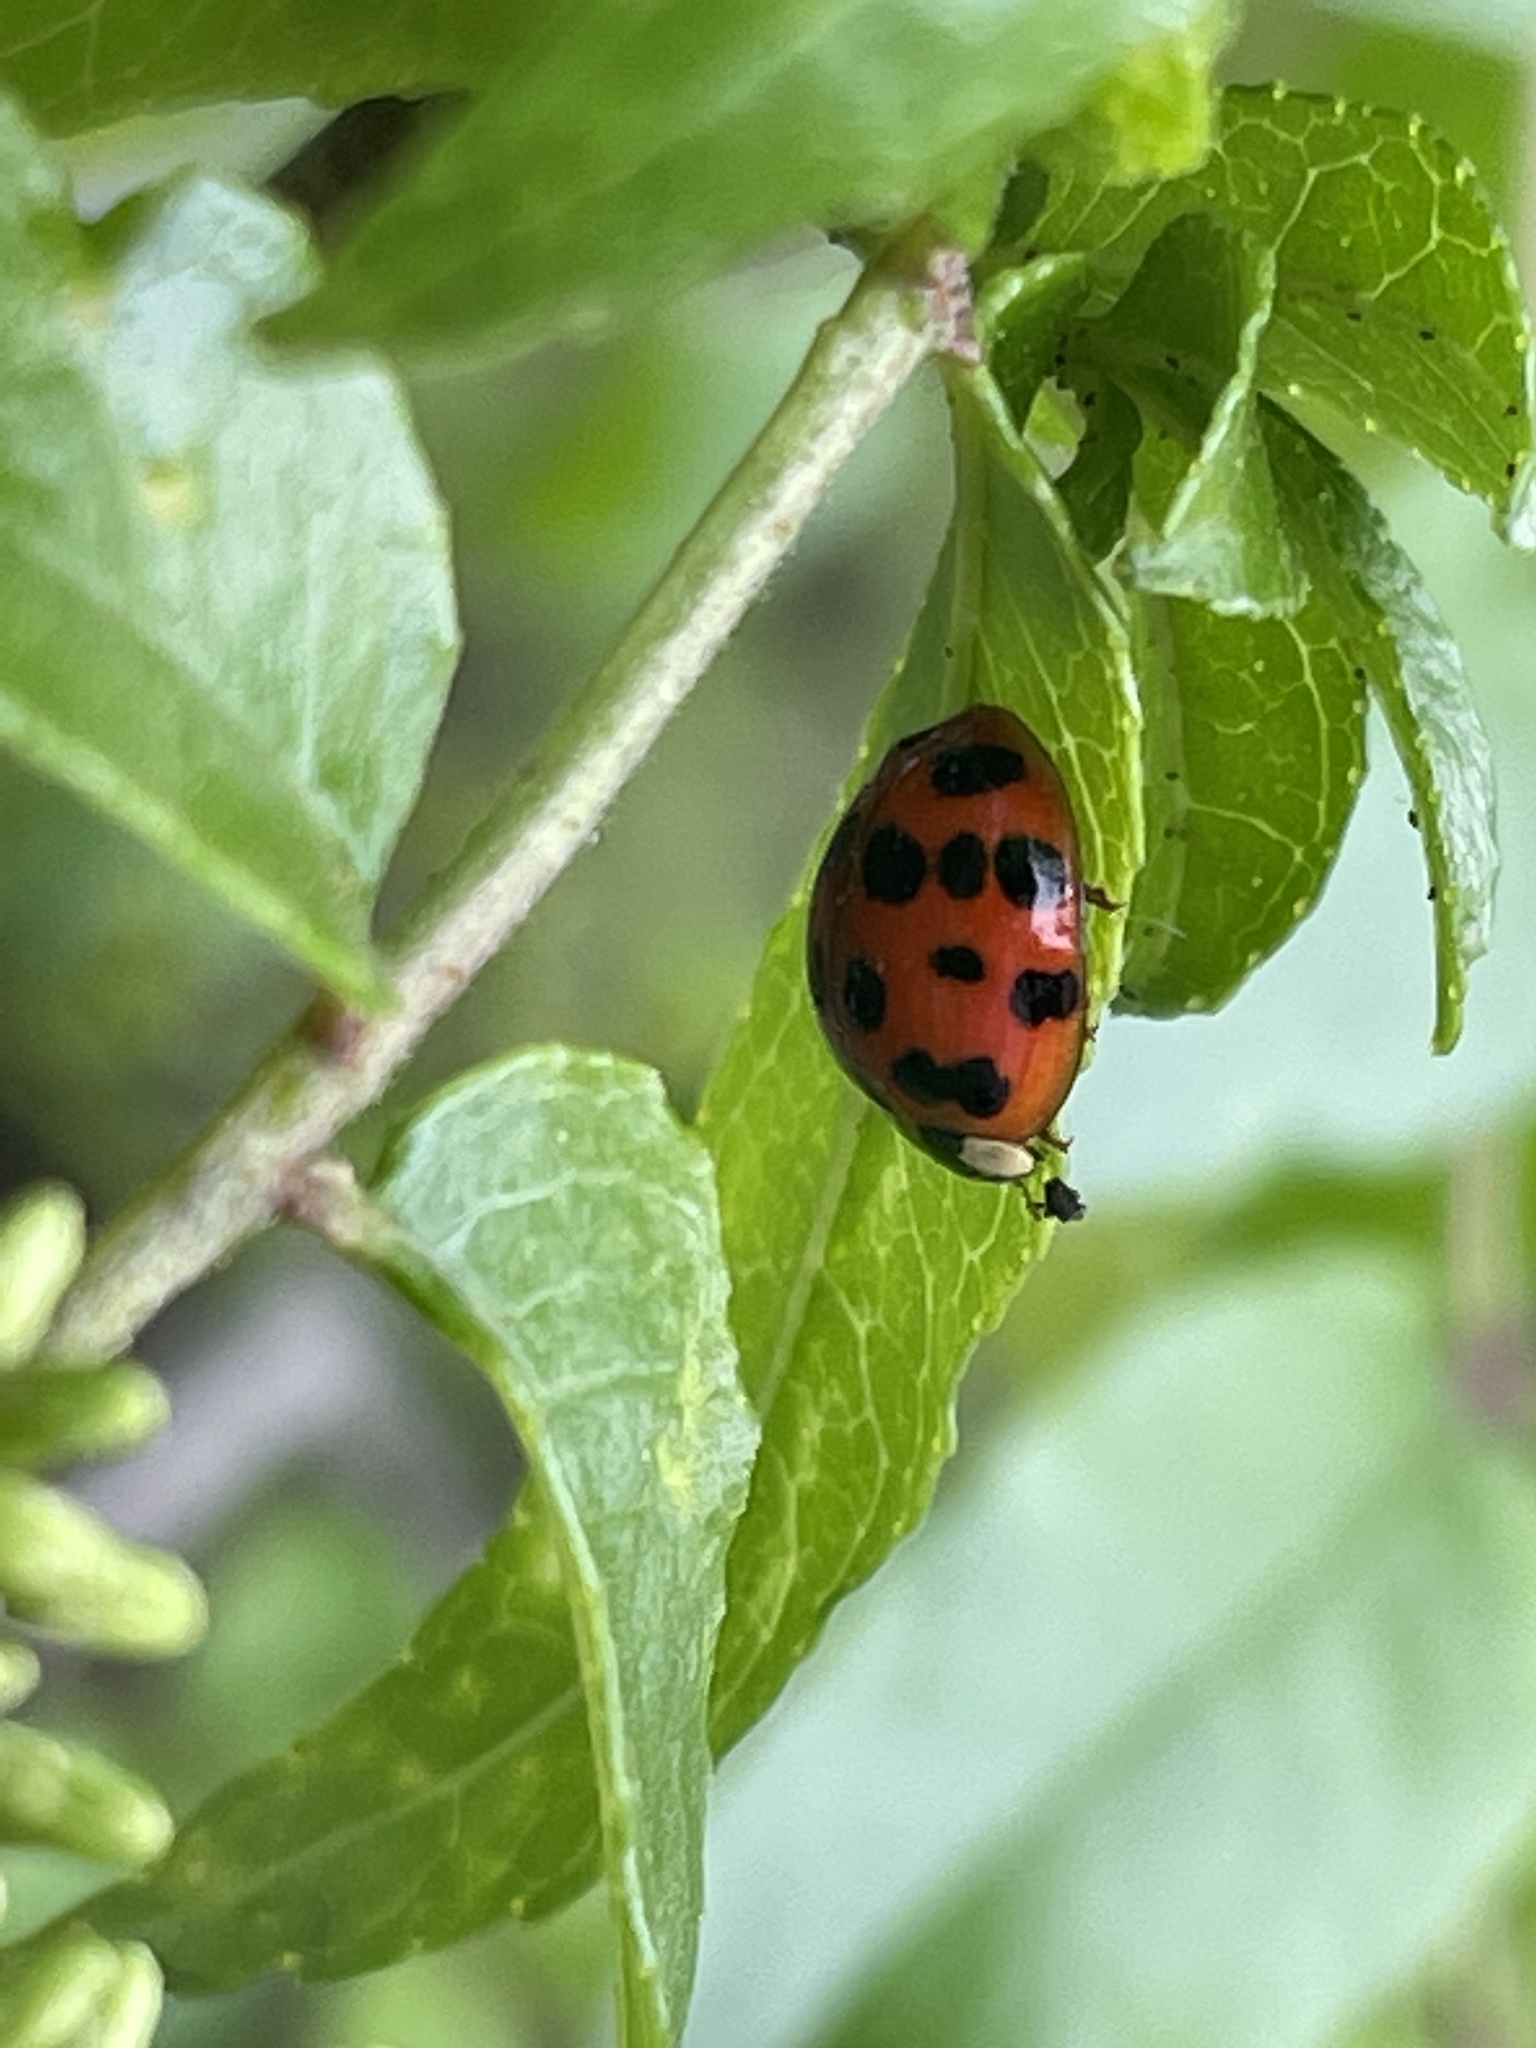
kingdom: Animalia
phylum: Arthropoda
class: Insecta
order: Coleoptera
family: Coccinellidae
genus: Harmonia
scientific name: Harmonia axyridis
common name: Harlequin ladybird
